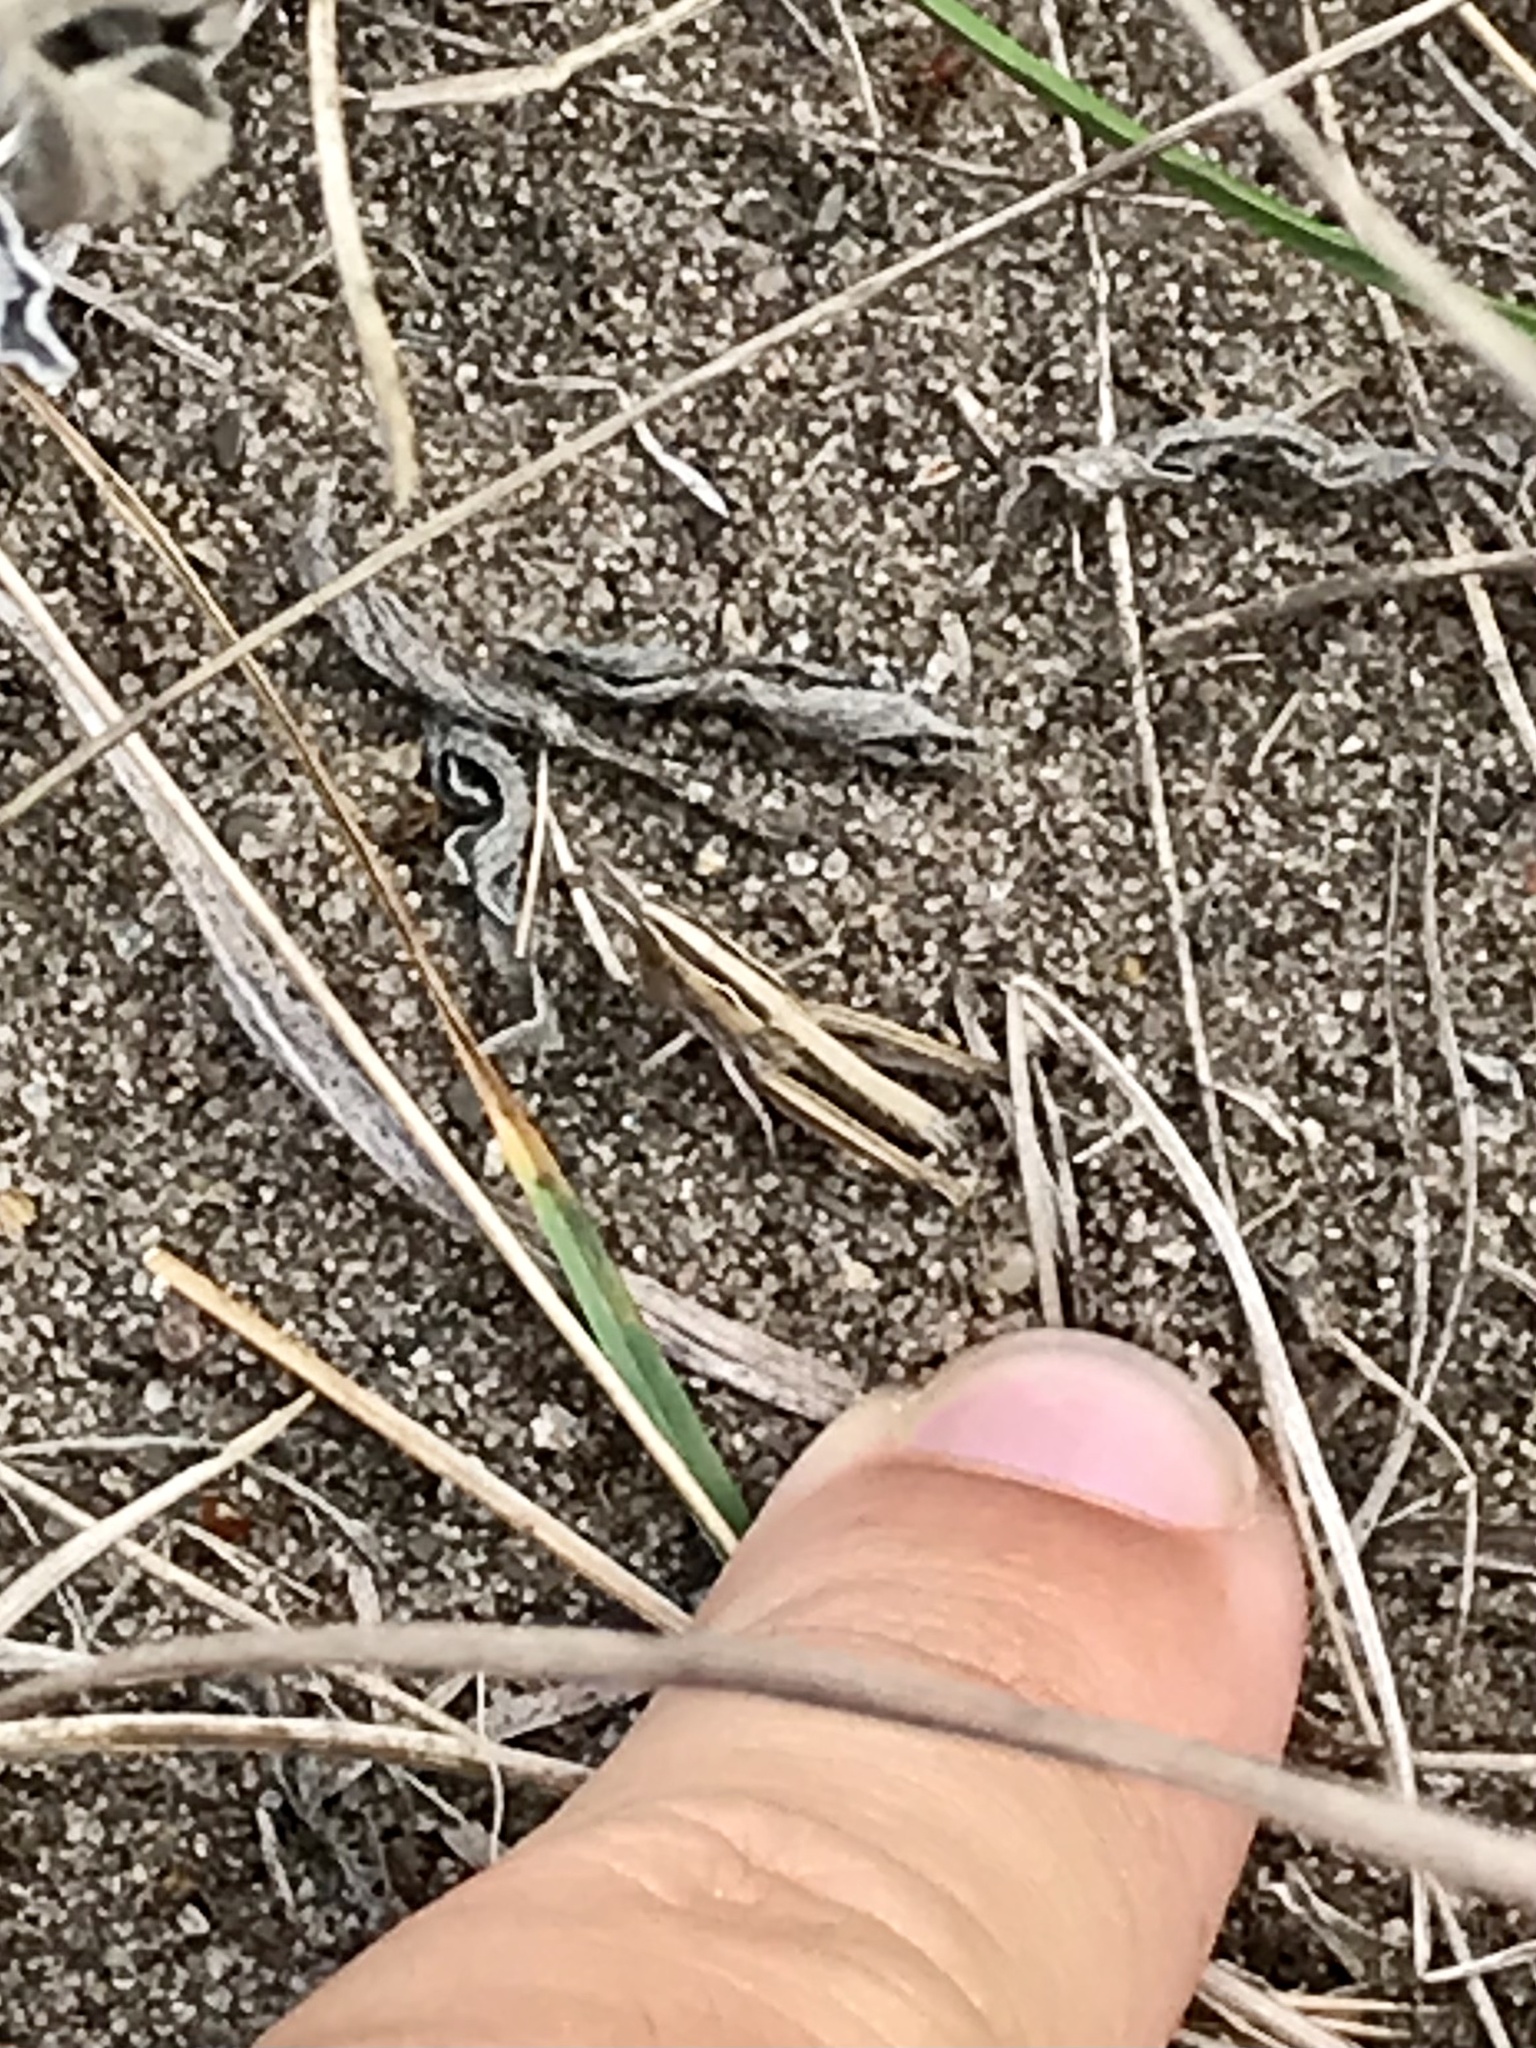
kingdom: Animalia
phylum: Arthropoda
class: Insecta
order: Orthoptera
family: Acrididae
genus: Eritettix
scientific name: Eritettix simplex
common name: Velvet-striped grasshopper
